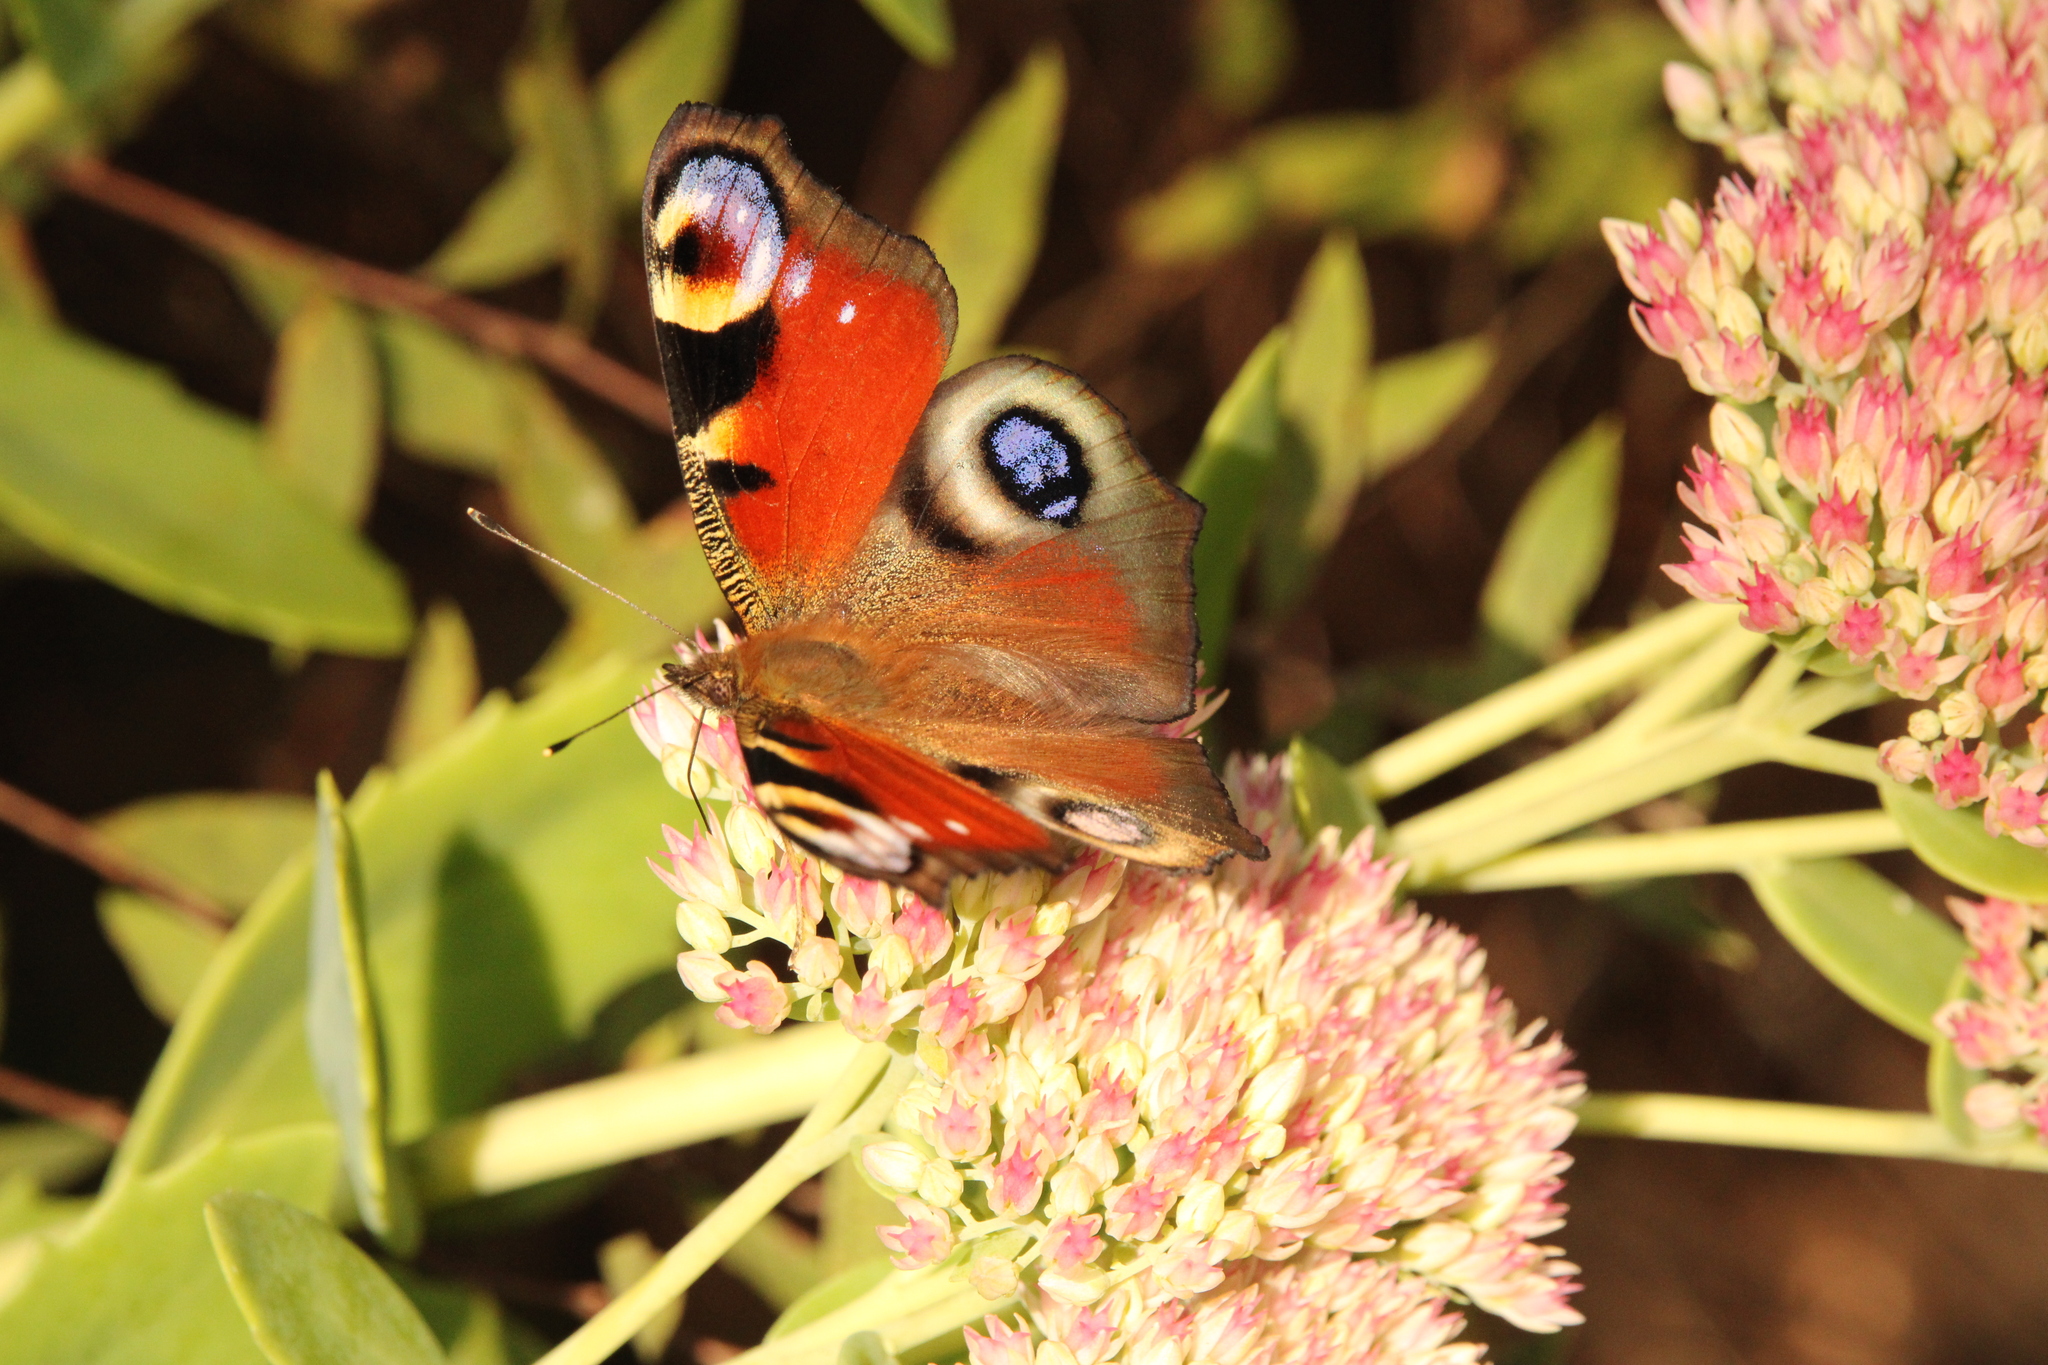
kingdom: Animalia
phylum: Arthropoda
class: Insecta
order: Lepidoptera
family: Nymphalidae
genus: Aglais
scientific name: Aglais io
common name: Peacock
